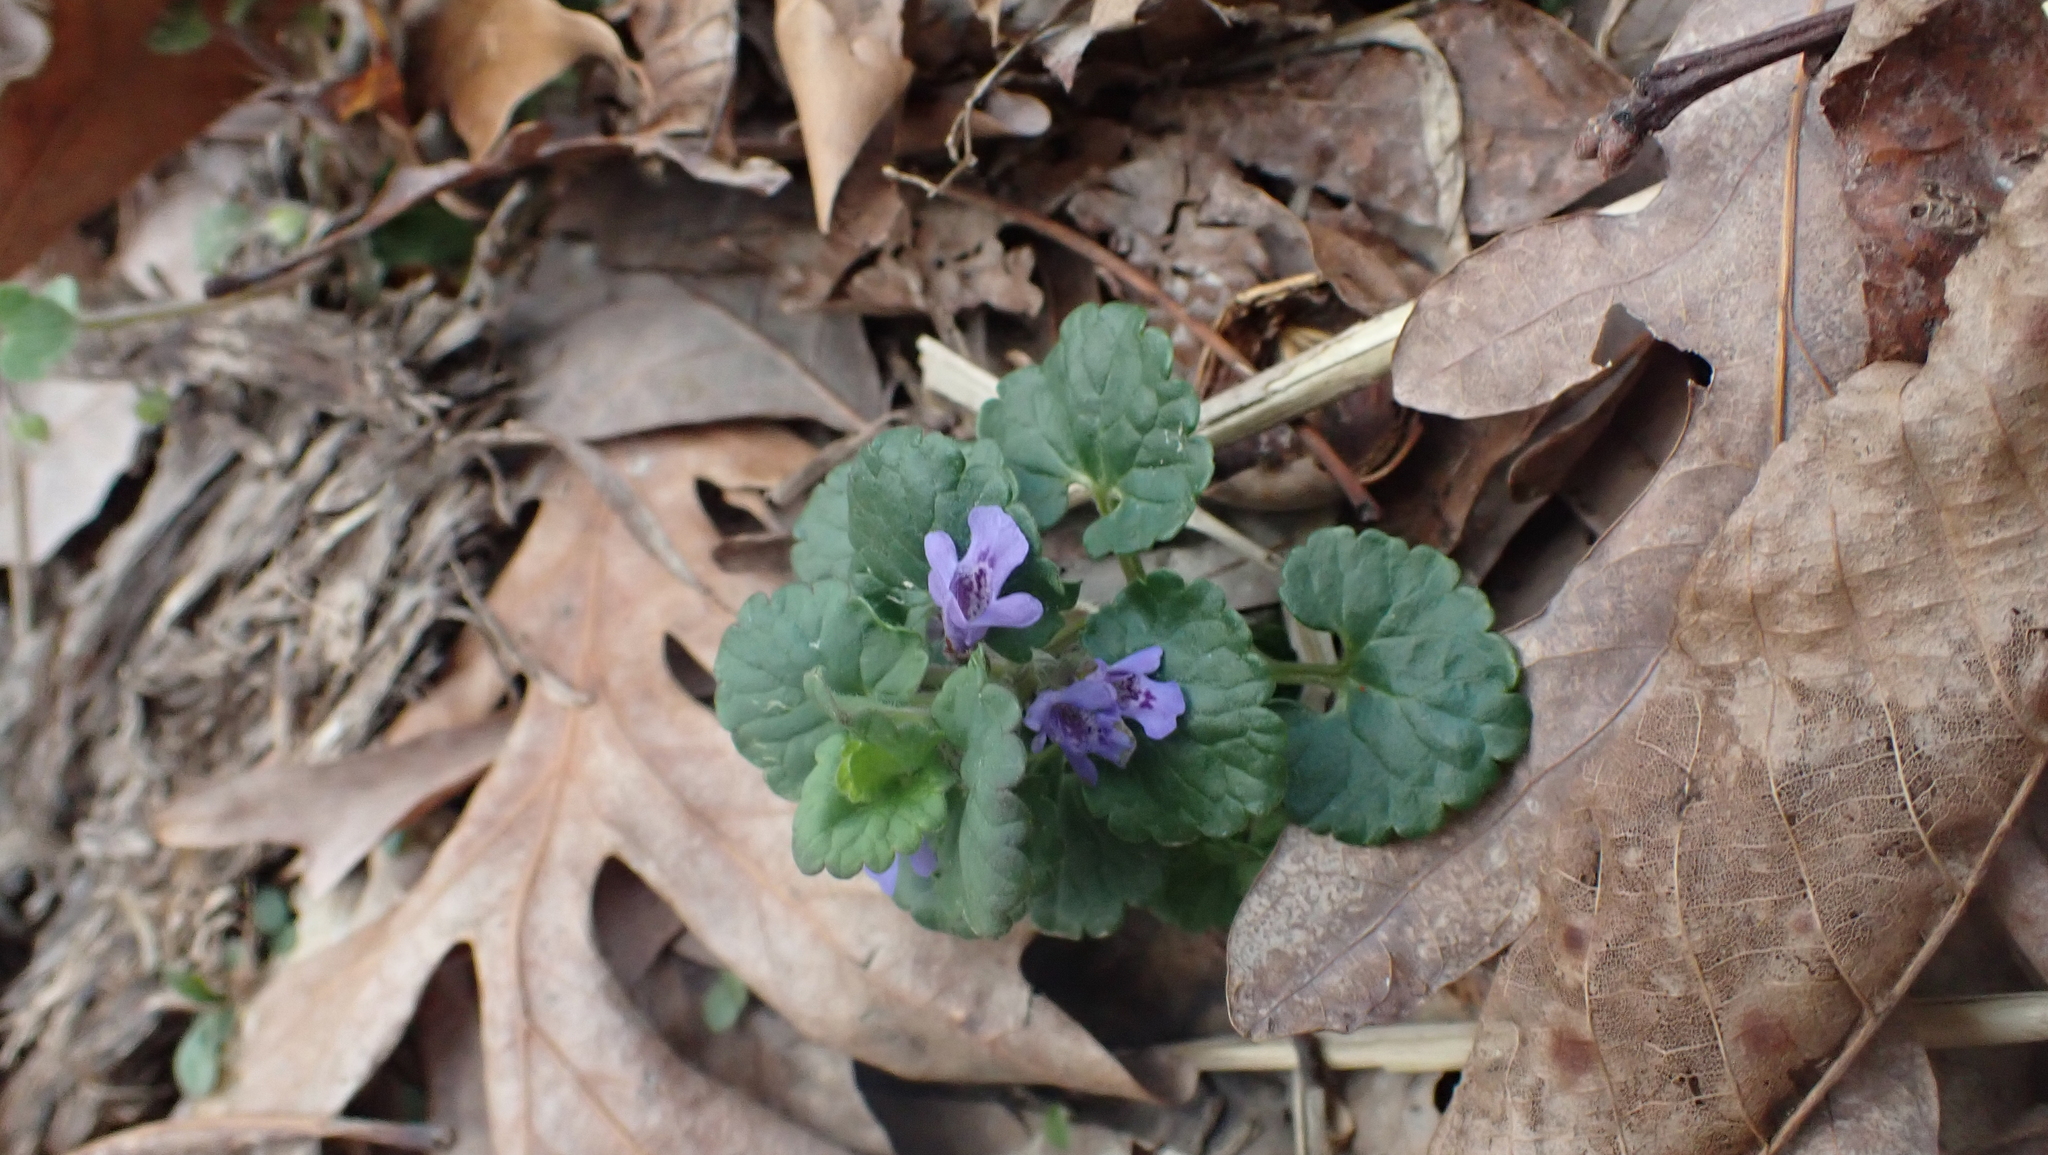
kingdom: Plantae
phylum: Tracheophyta
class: Magnoliopsida
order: Lamiales
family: Lamiaceae
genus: Glechoma
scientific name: Glechoma hederacea
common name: Ground ivy
